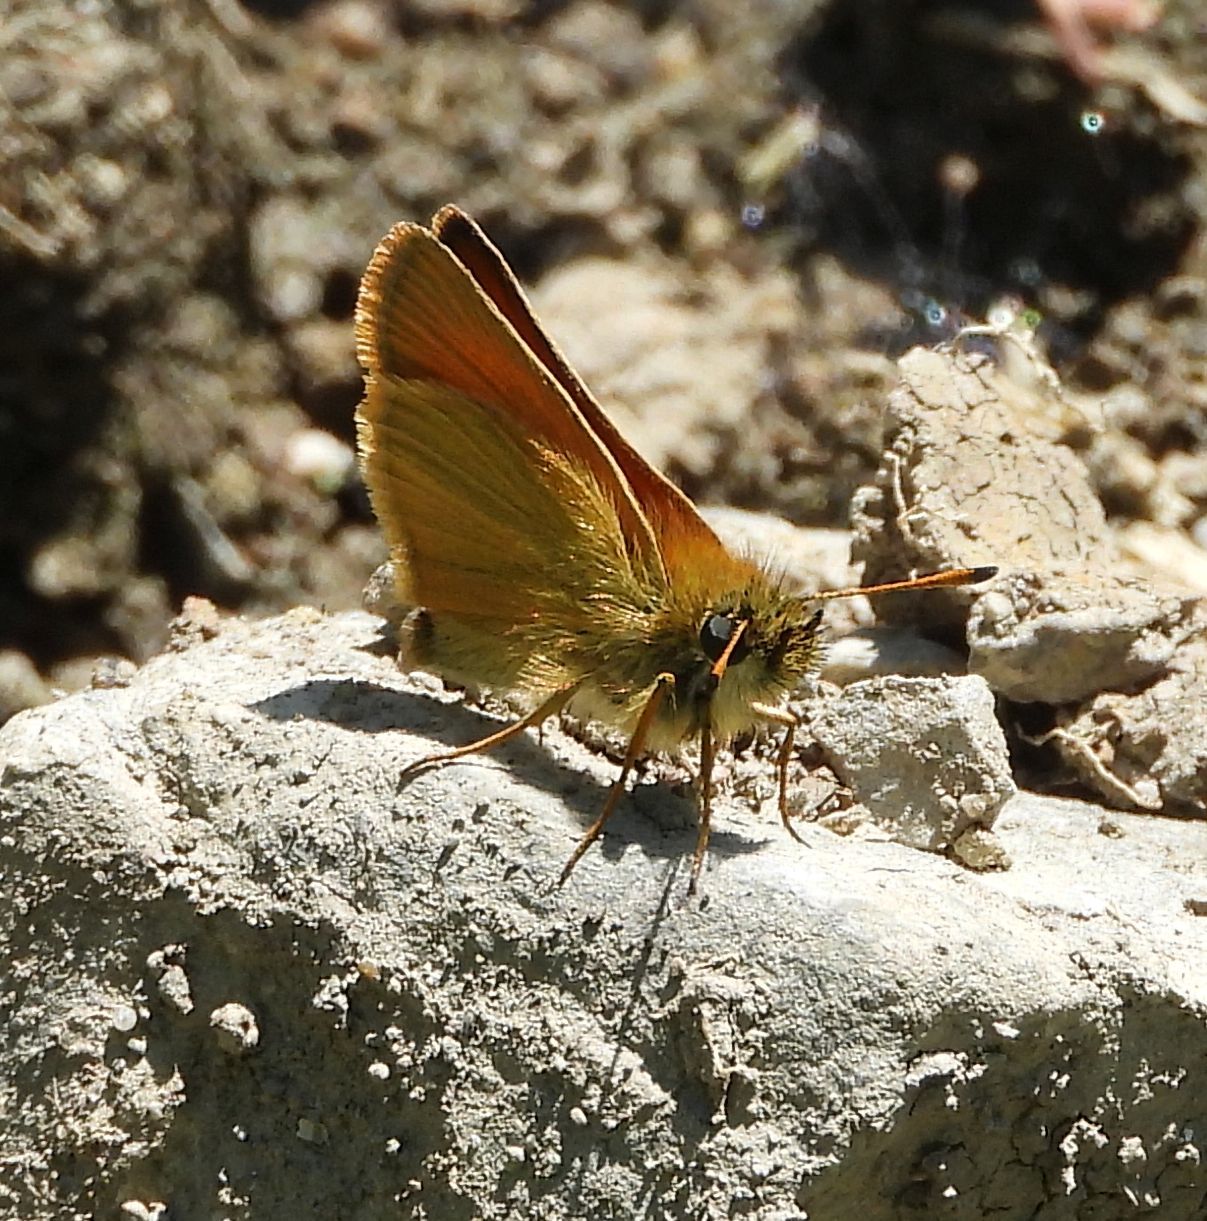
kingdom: Animalia
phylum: Arthropoda
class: Insecta
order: Lepidoptera
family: Hesperiidae
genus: Thymelicus
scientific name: Thymelicus lineola
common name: Essex skipper
